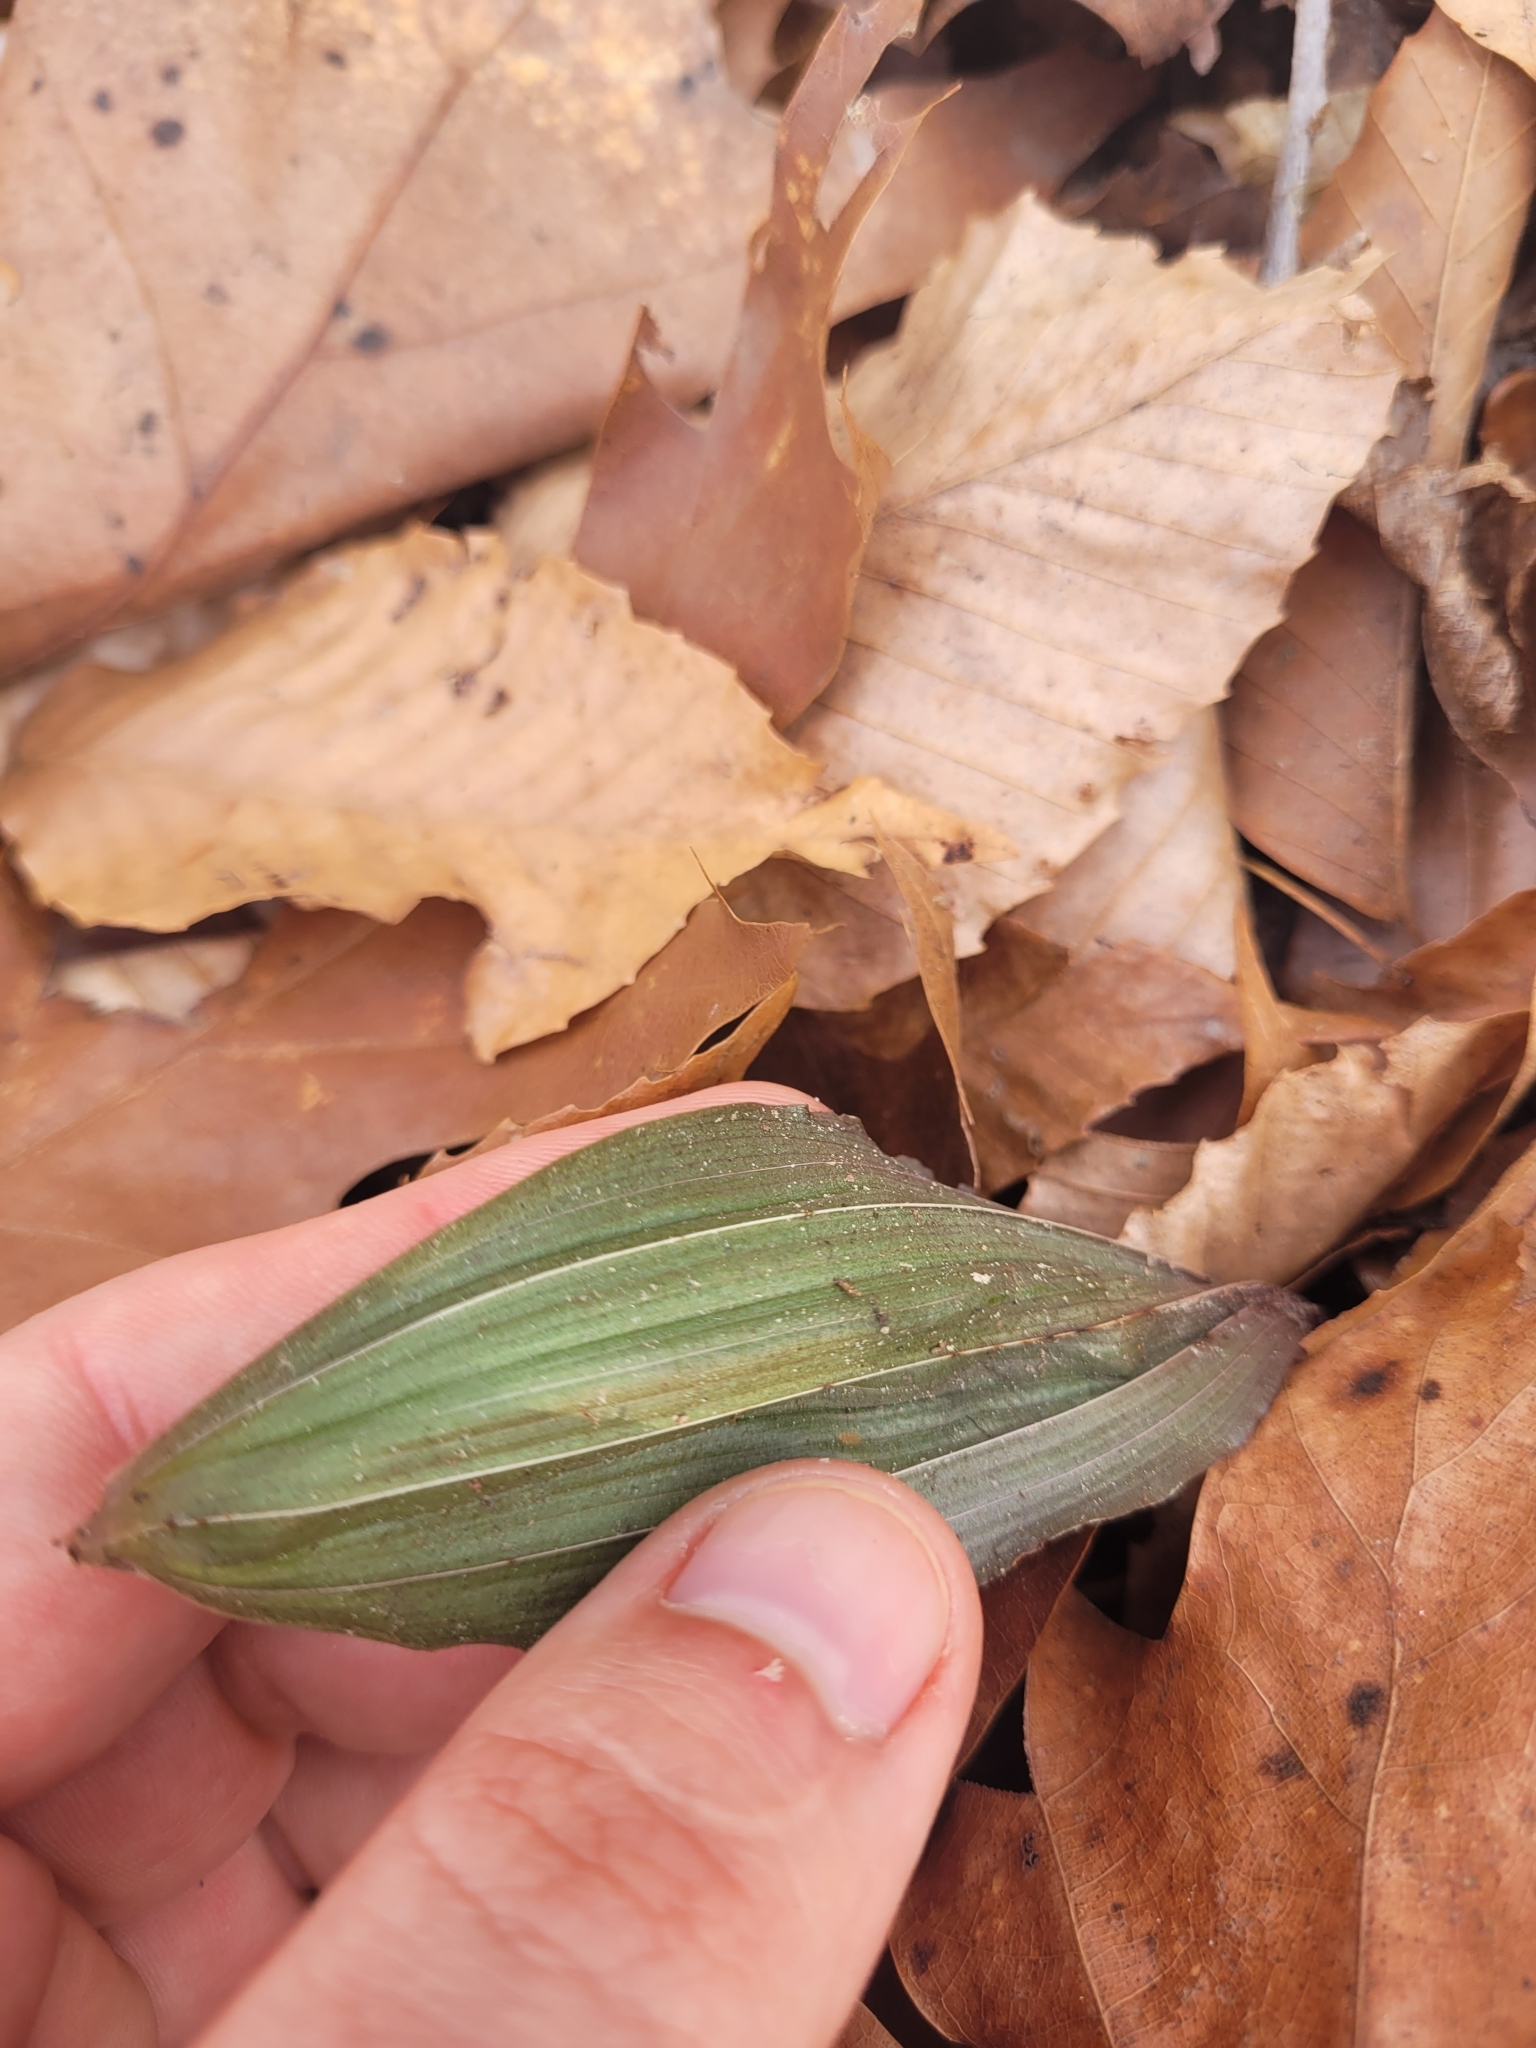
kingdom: Plantae
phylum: Tracheophyta
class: Liliopsida
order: Asparagales
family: Orchidaceae
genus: Aplectrum
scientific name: Aplectrum hyemale
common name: Adam-and-eve
